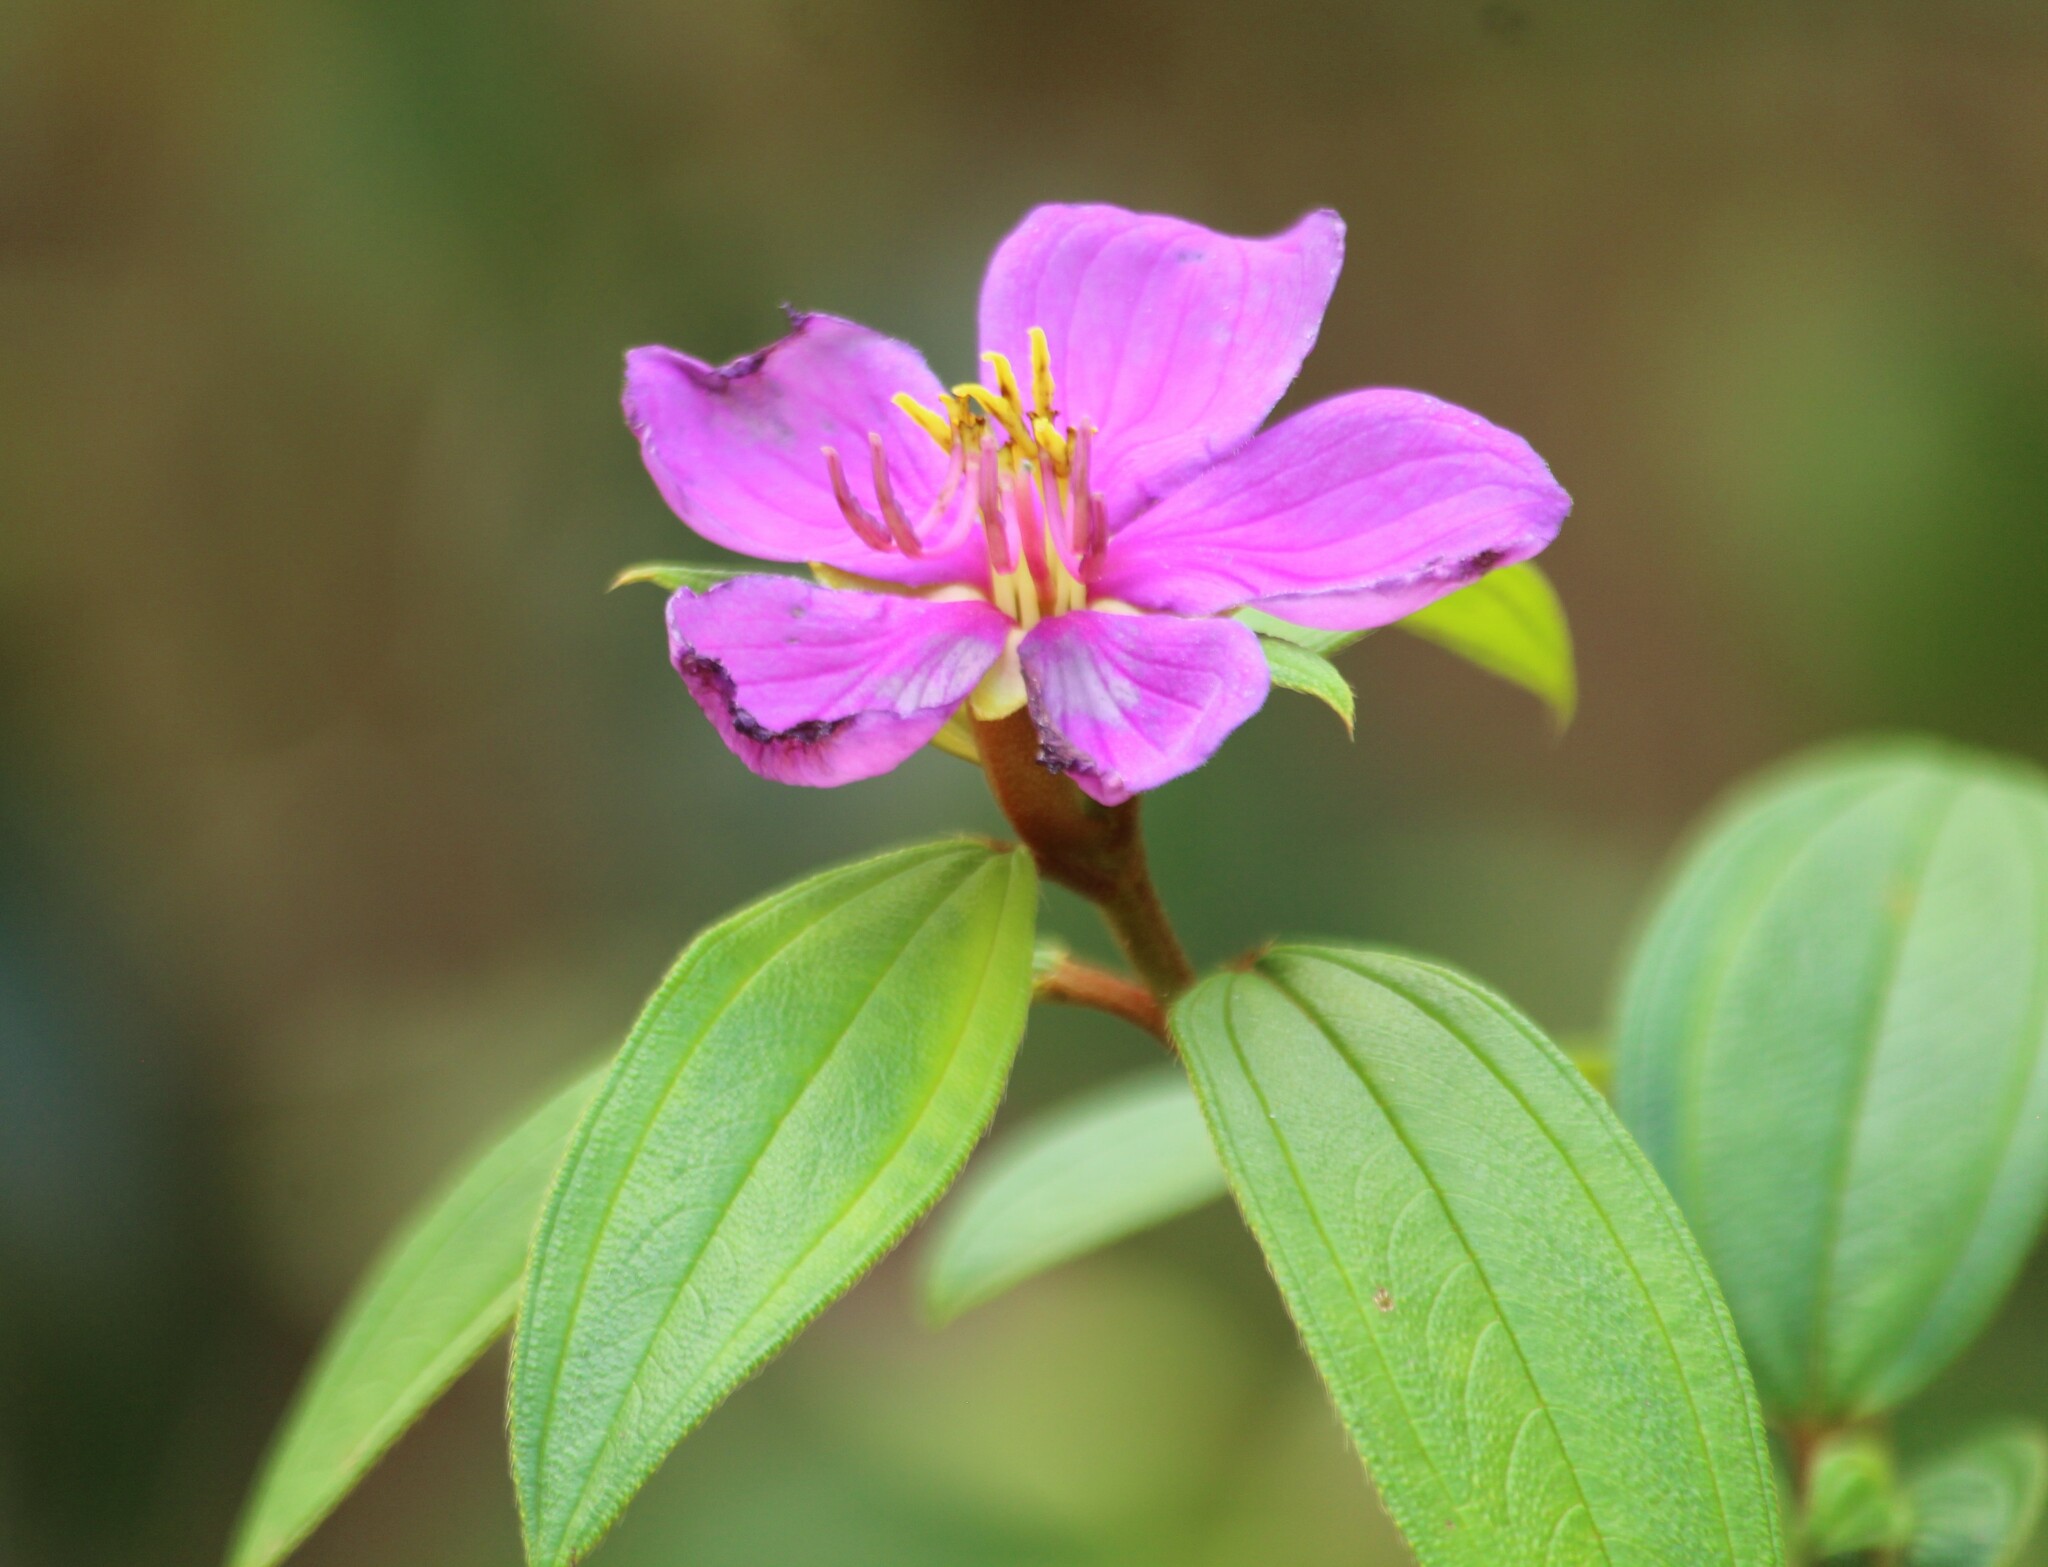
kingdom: Plantae
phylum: Tracheophyta
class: Magnoliopsida
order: Myrtales
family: Melastomataceae
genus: Melastoma
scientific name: Melastoma malabathricum
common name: Indian-rhododendron
